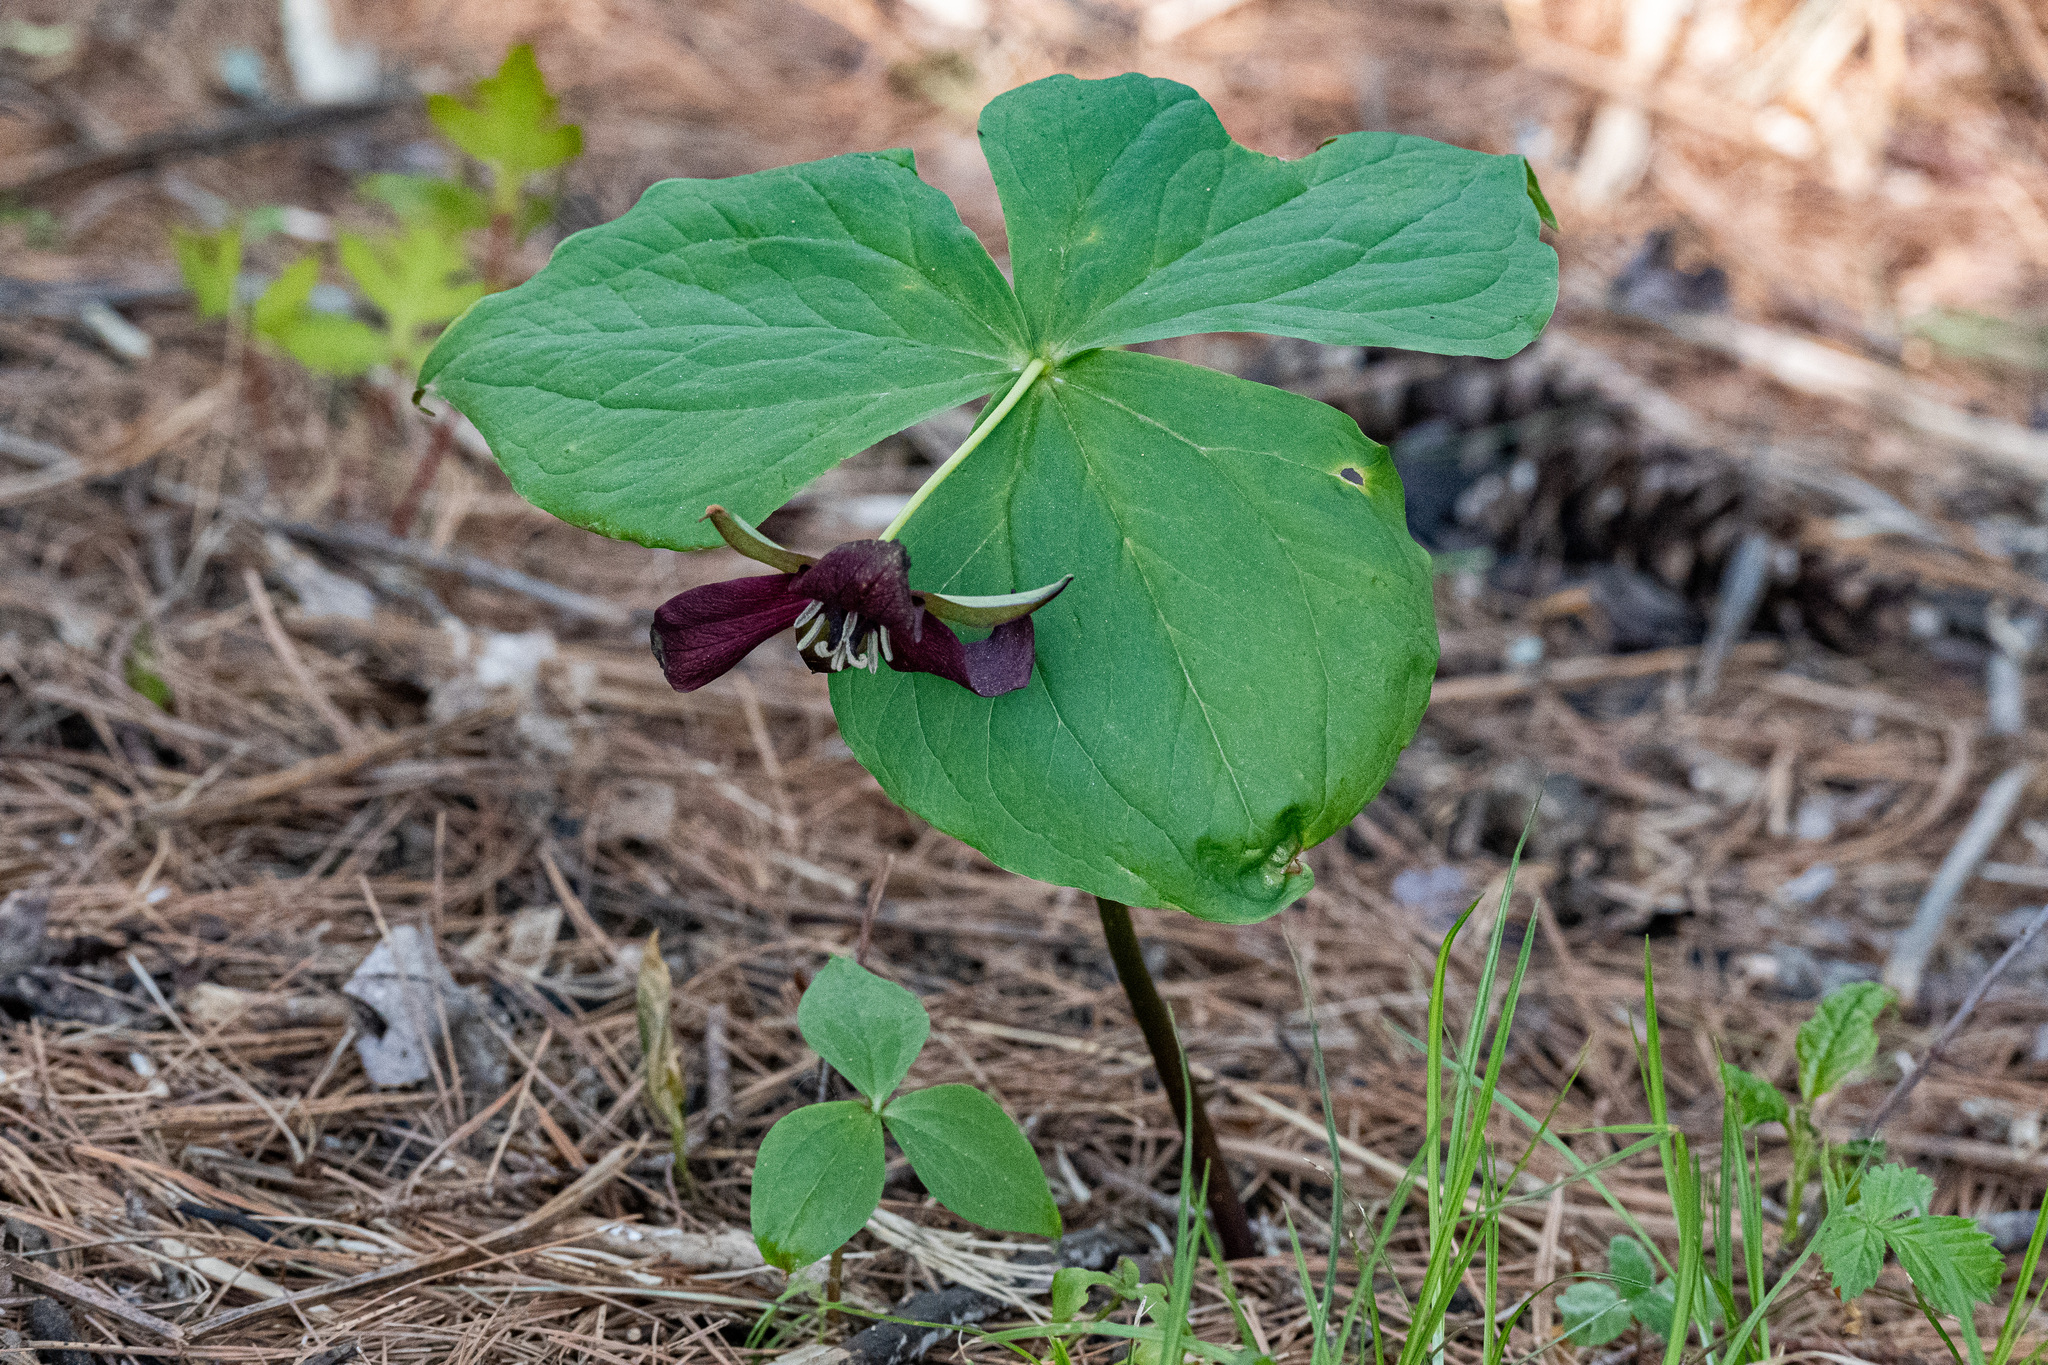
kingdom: Plantae
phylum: Tracheophyta
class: Liliopsida
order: Liliales
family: Melanthiaceae
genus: Trillium
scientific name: Trillium erectum
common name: Purple trillium
